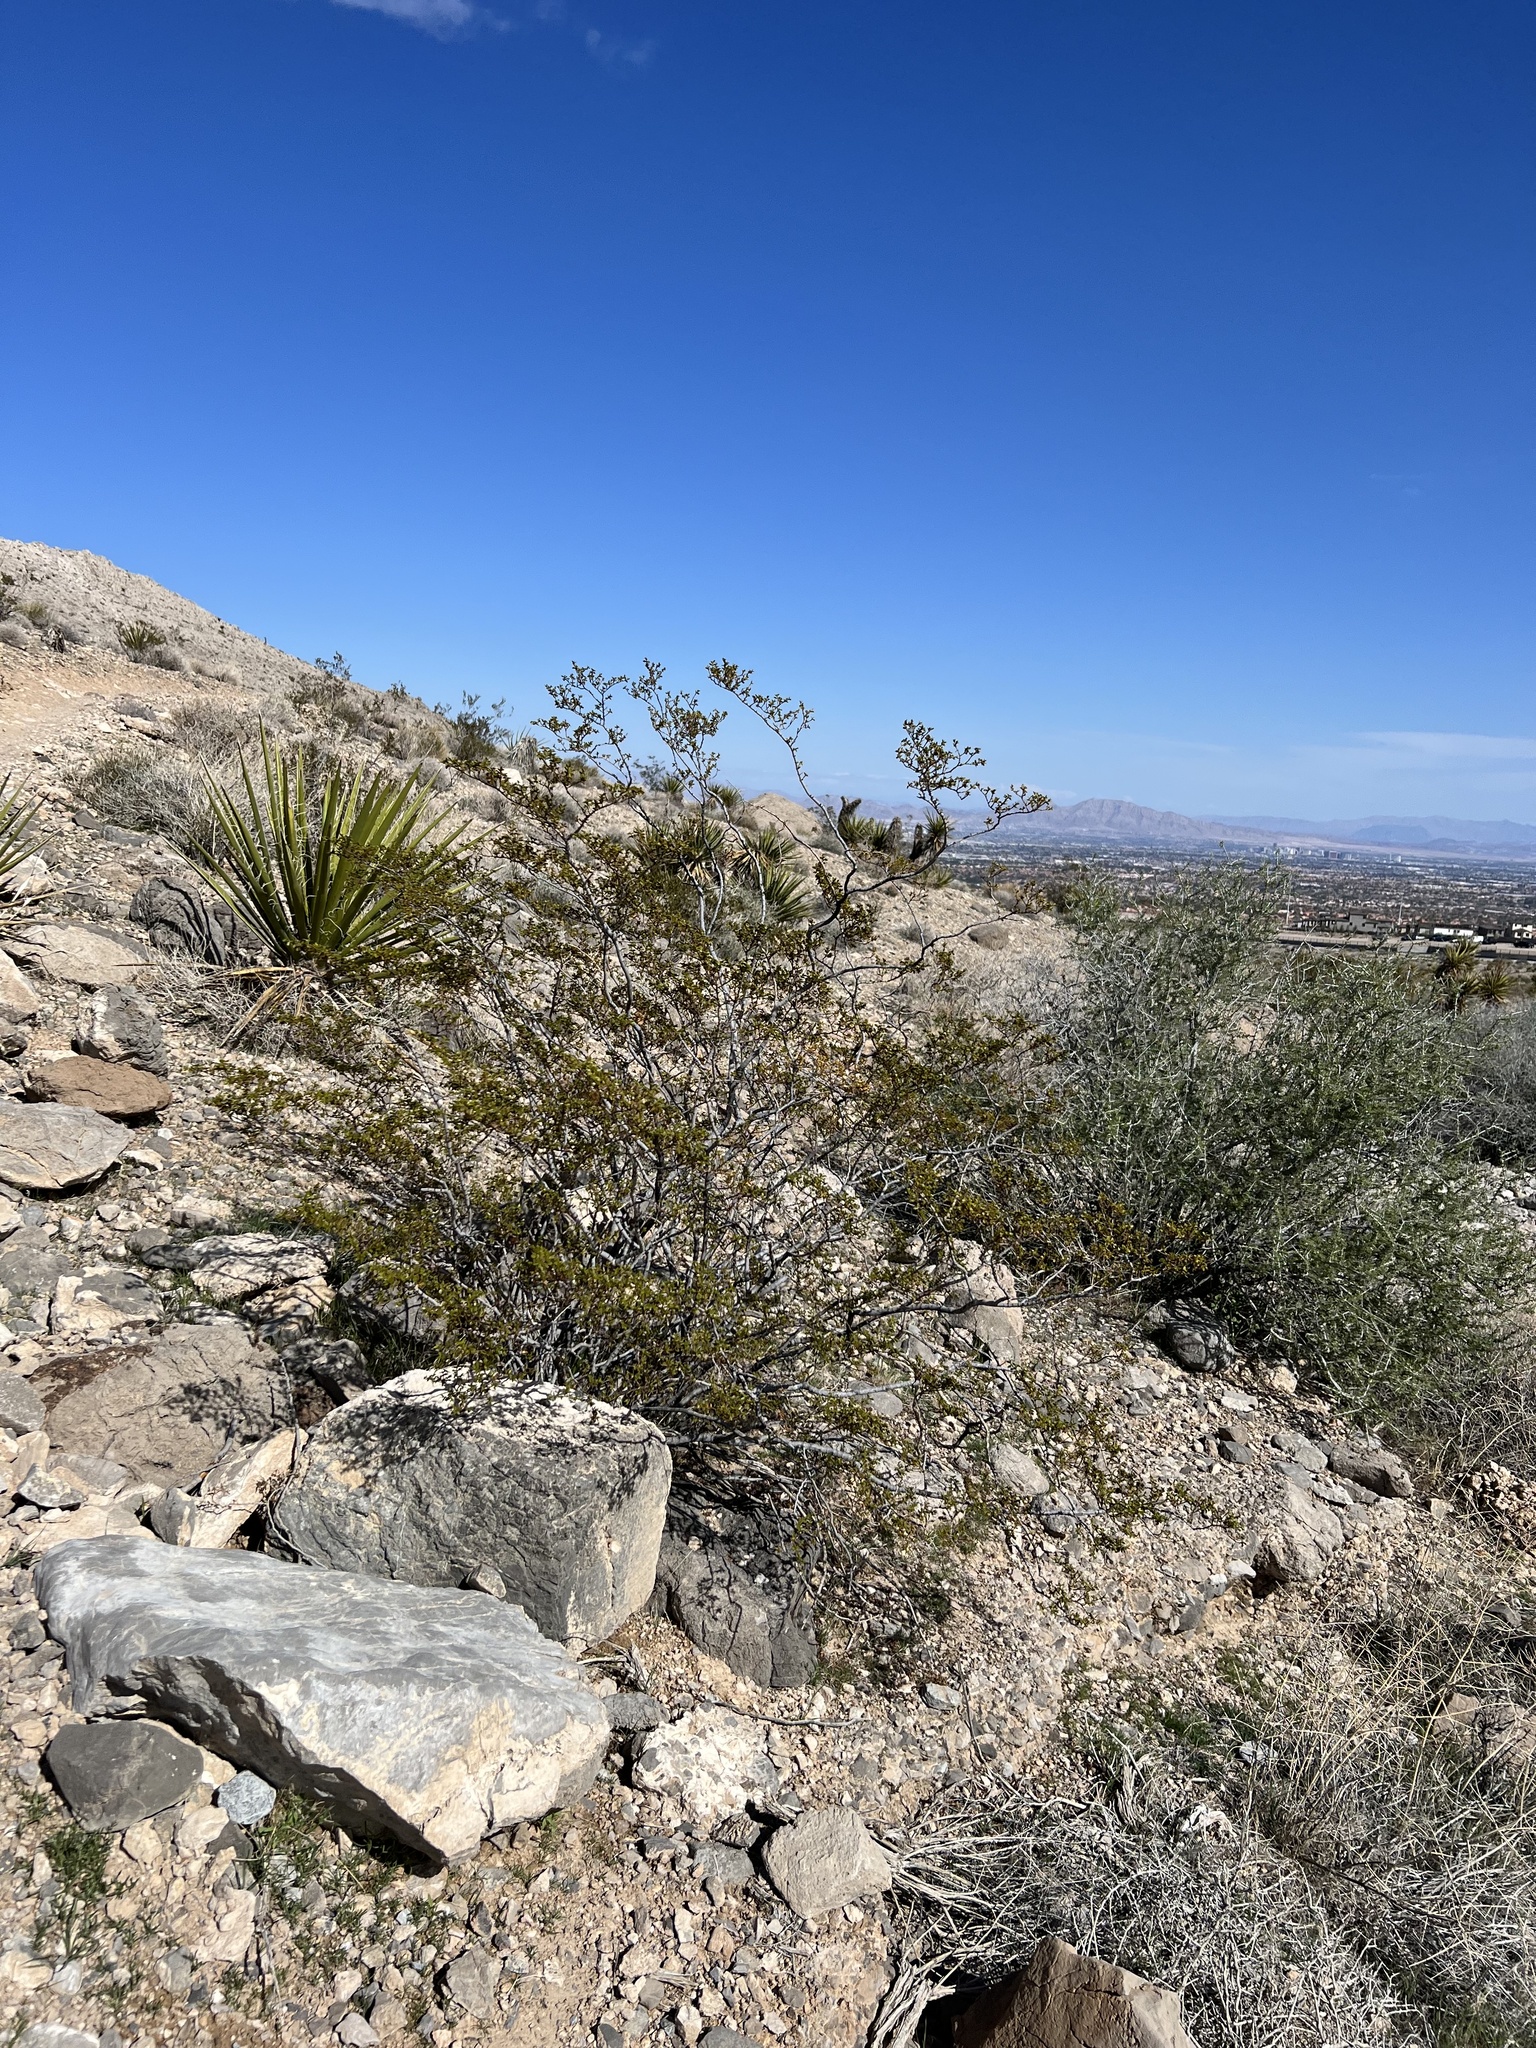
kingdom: Plantae
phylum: Tracheophyta
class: Magnoliopsida
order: Zygophyllales
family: Zygophyllaceae
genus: Larrea
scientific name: Larrea tridentata
